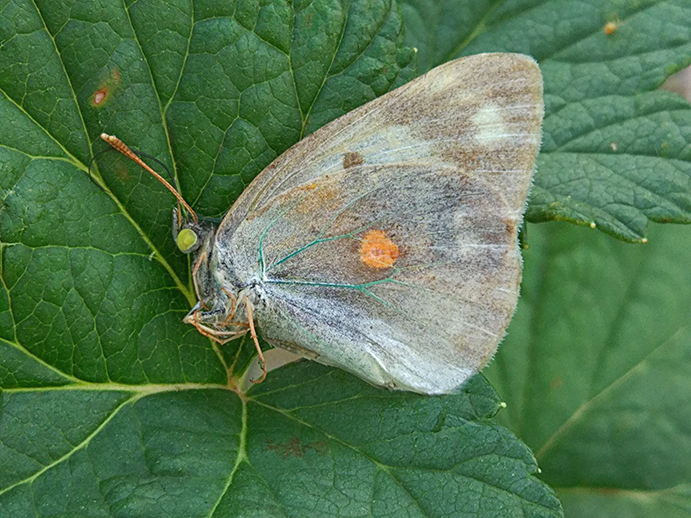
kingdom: Animalia
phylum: Arthropoda
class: Insecta
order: Lepidoptera
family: Pieridae
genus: Colias
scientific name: Colias croceus
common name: Clouded yellow
